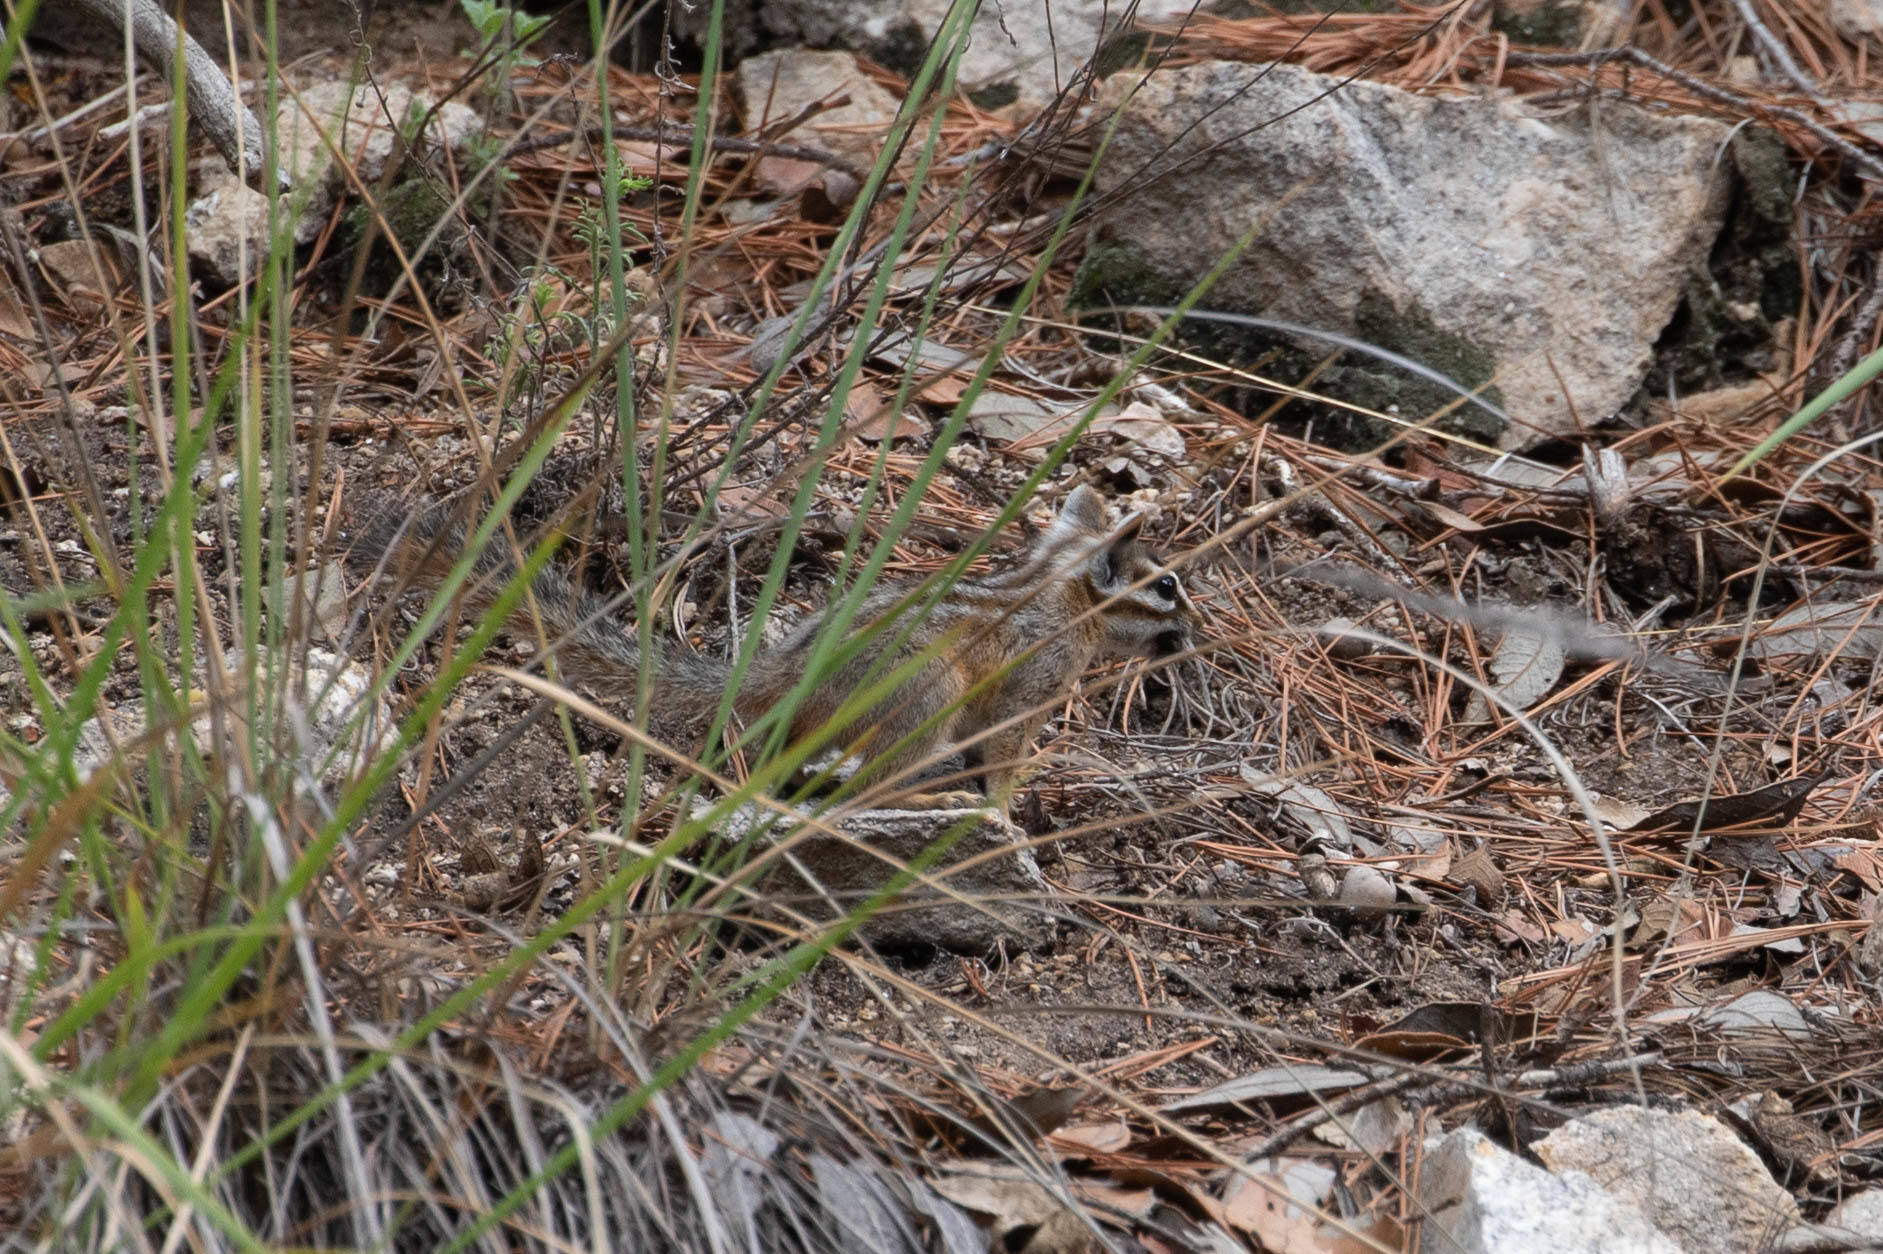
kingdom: Animalia
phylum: Chordata
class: Mammalia
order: Rodentia
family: Sciuridae
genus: Tamias
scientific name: Tamias dorsalis
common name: Cliff chipmunk
